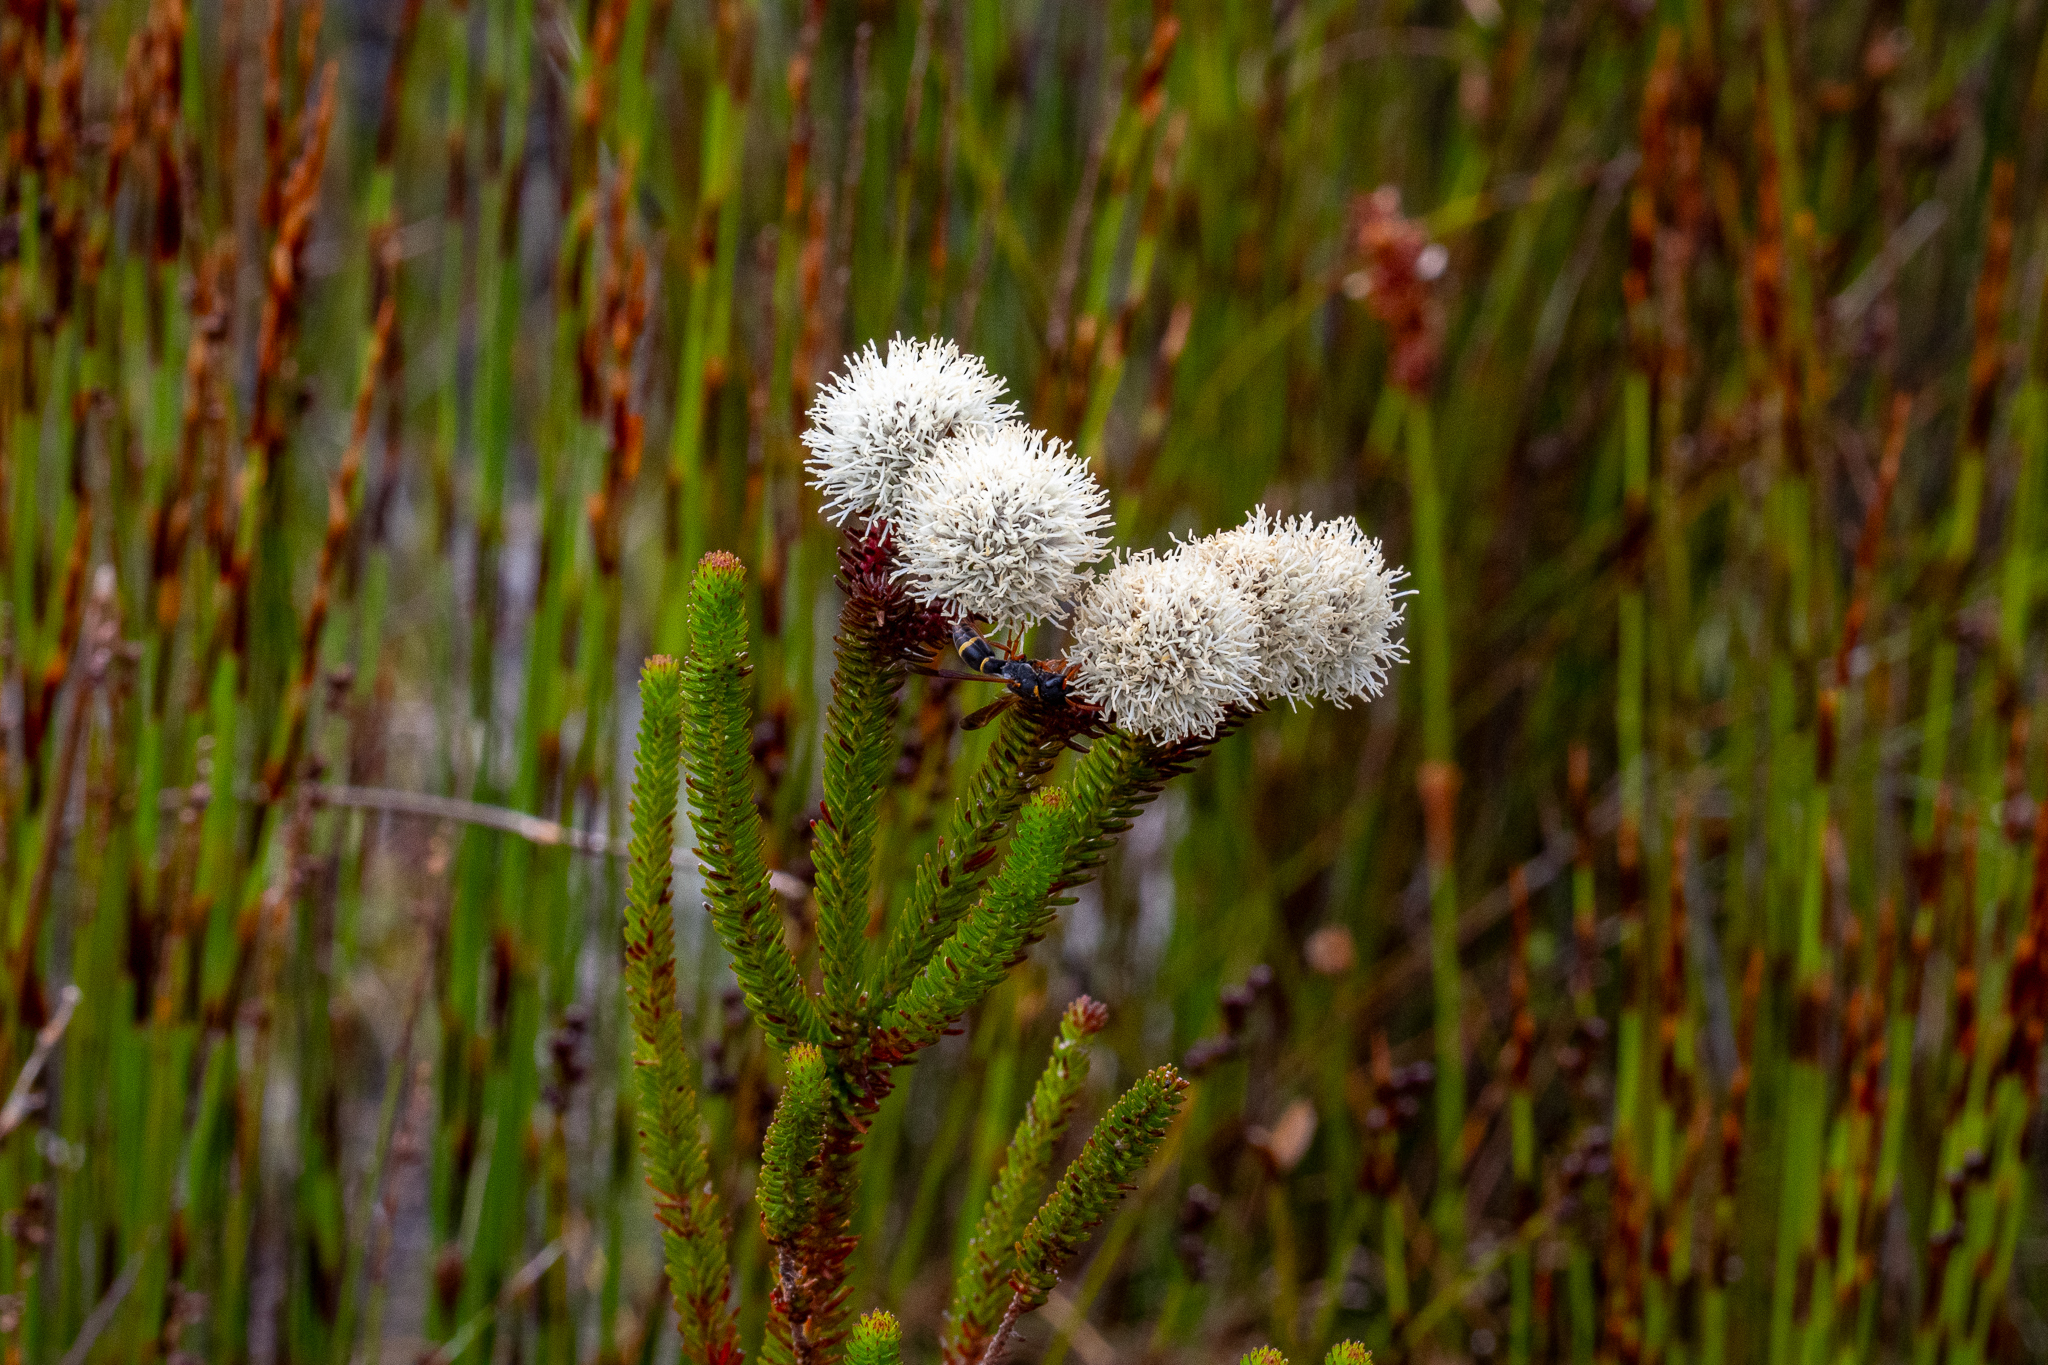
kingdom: Plantae
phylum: Tracheophyta
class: Magnoliopsida
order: Bruniales
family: Bruniaceae
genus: Berzelia
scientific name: Berzelia ecklonii
